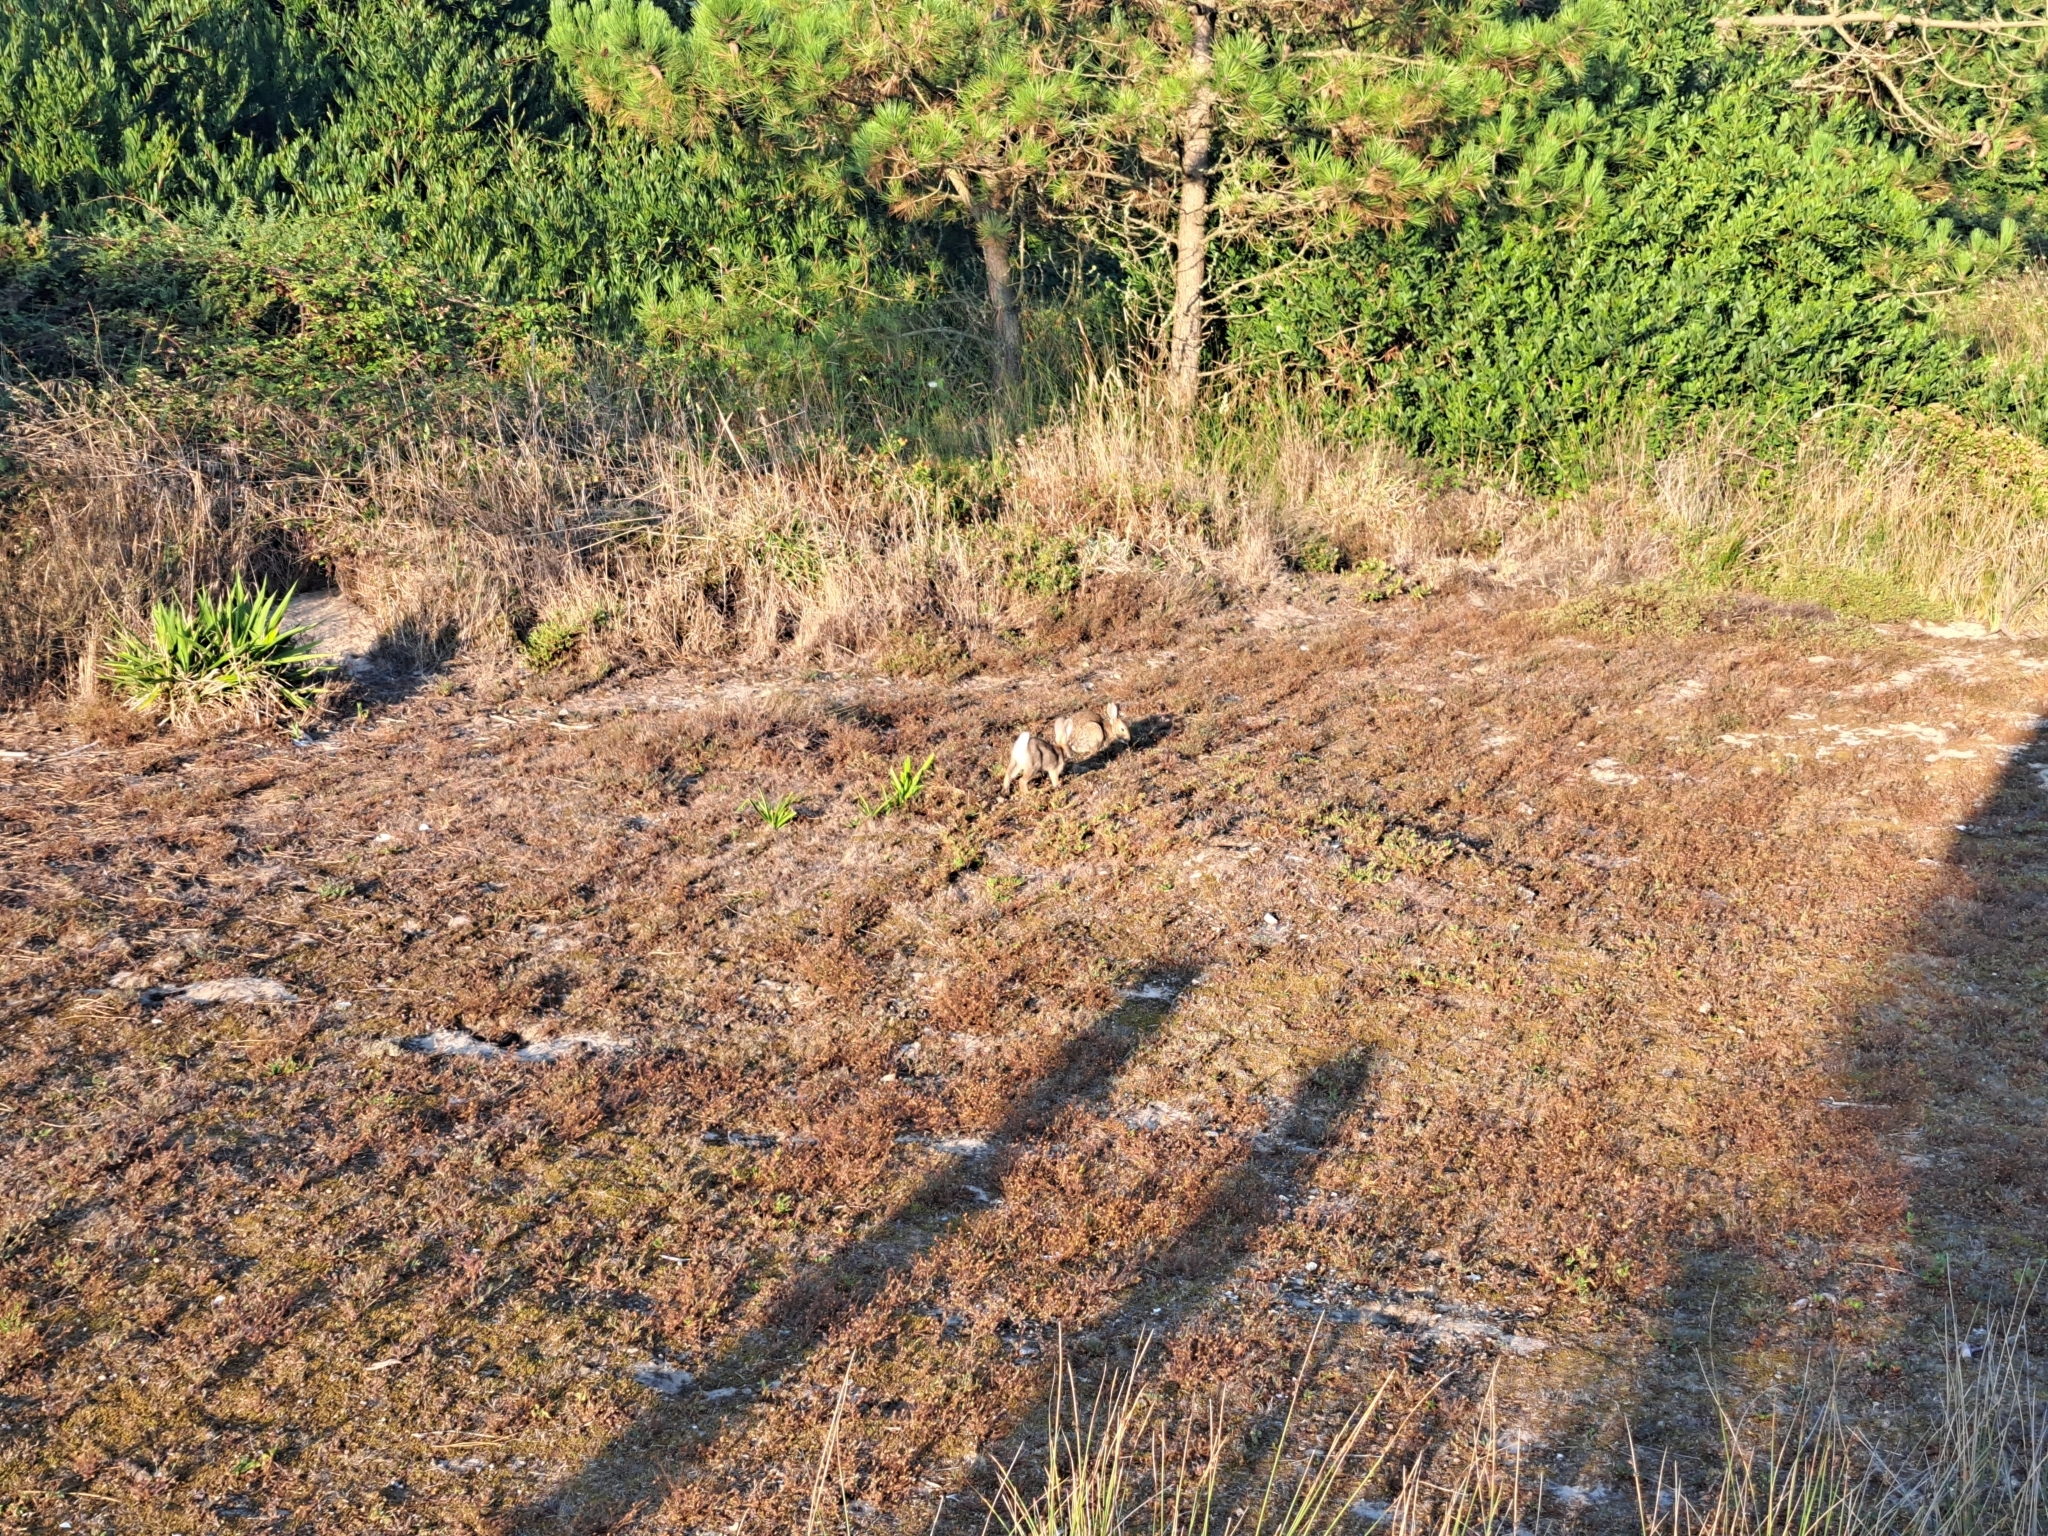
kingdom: Animalia
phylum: Chordata
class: Mammalia
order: Lagomorpha
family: Leporidae
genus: Oryctolagus
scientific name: Oryctolagus cuniculus
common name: European rabbit
